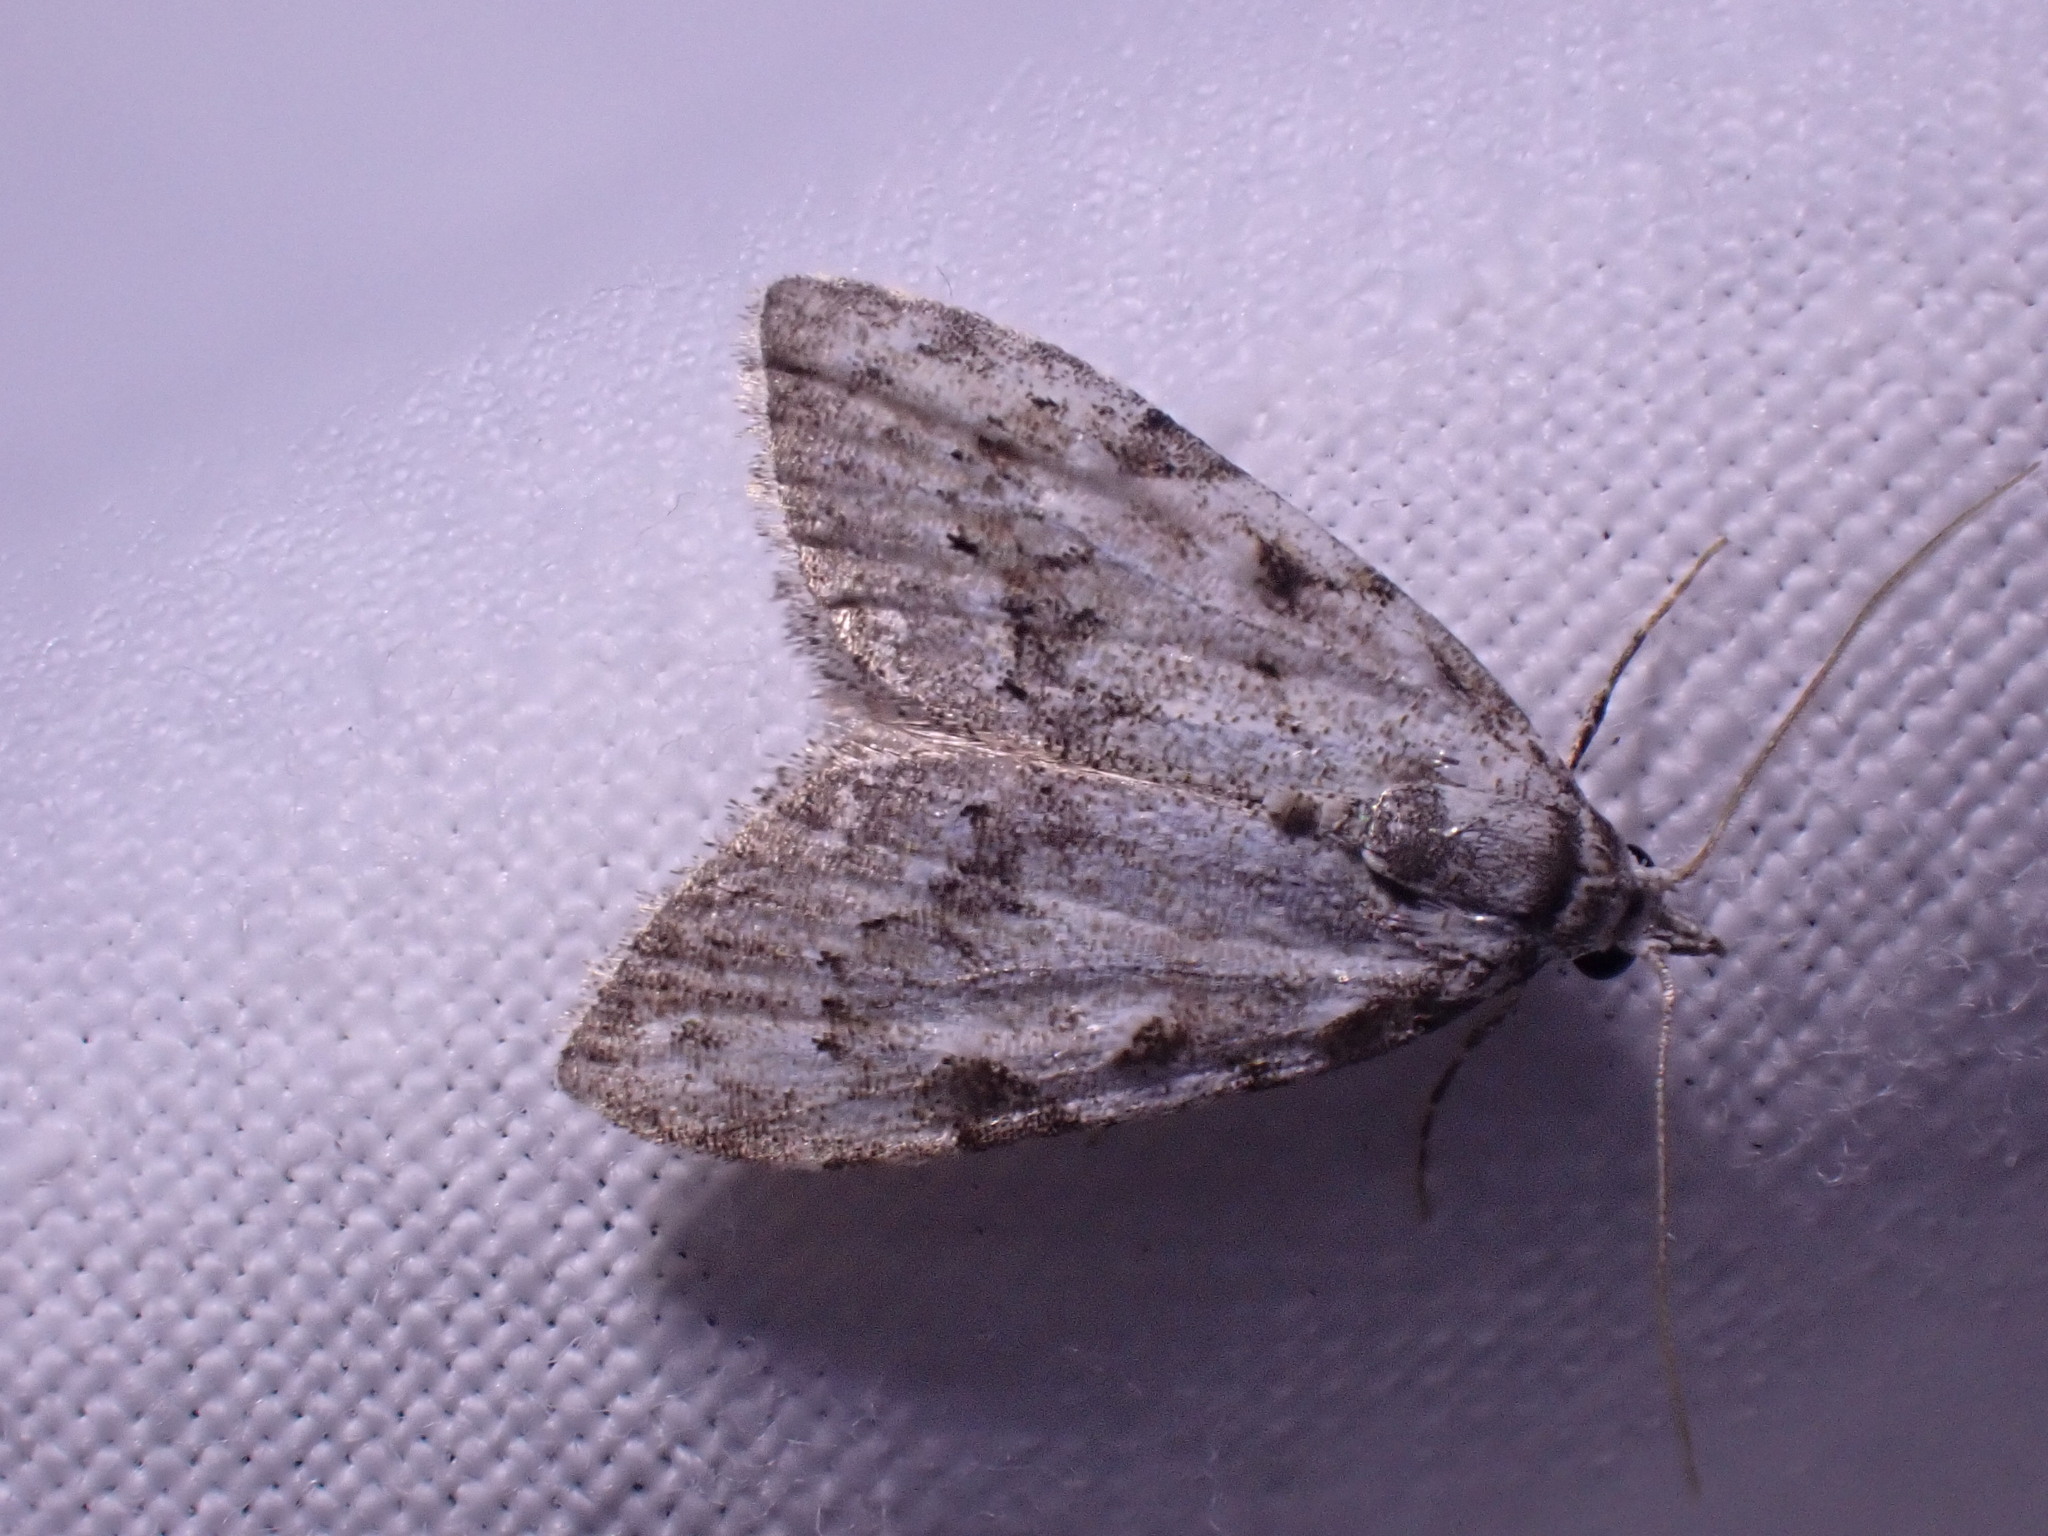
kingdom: Animalia
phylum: Arthropoda
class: Insecta
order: Lepidoptera
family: Nolidae
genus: Nola
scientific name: Nola confusalis
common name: Least black arches
